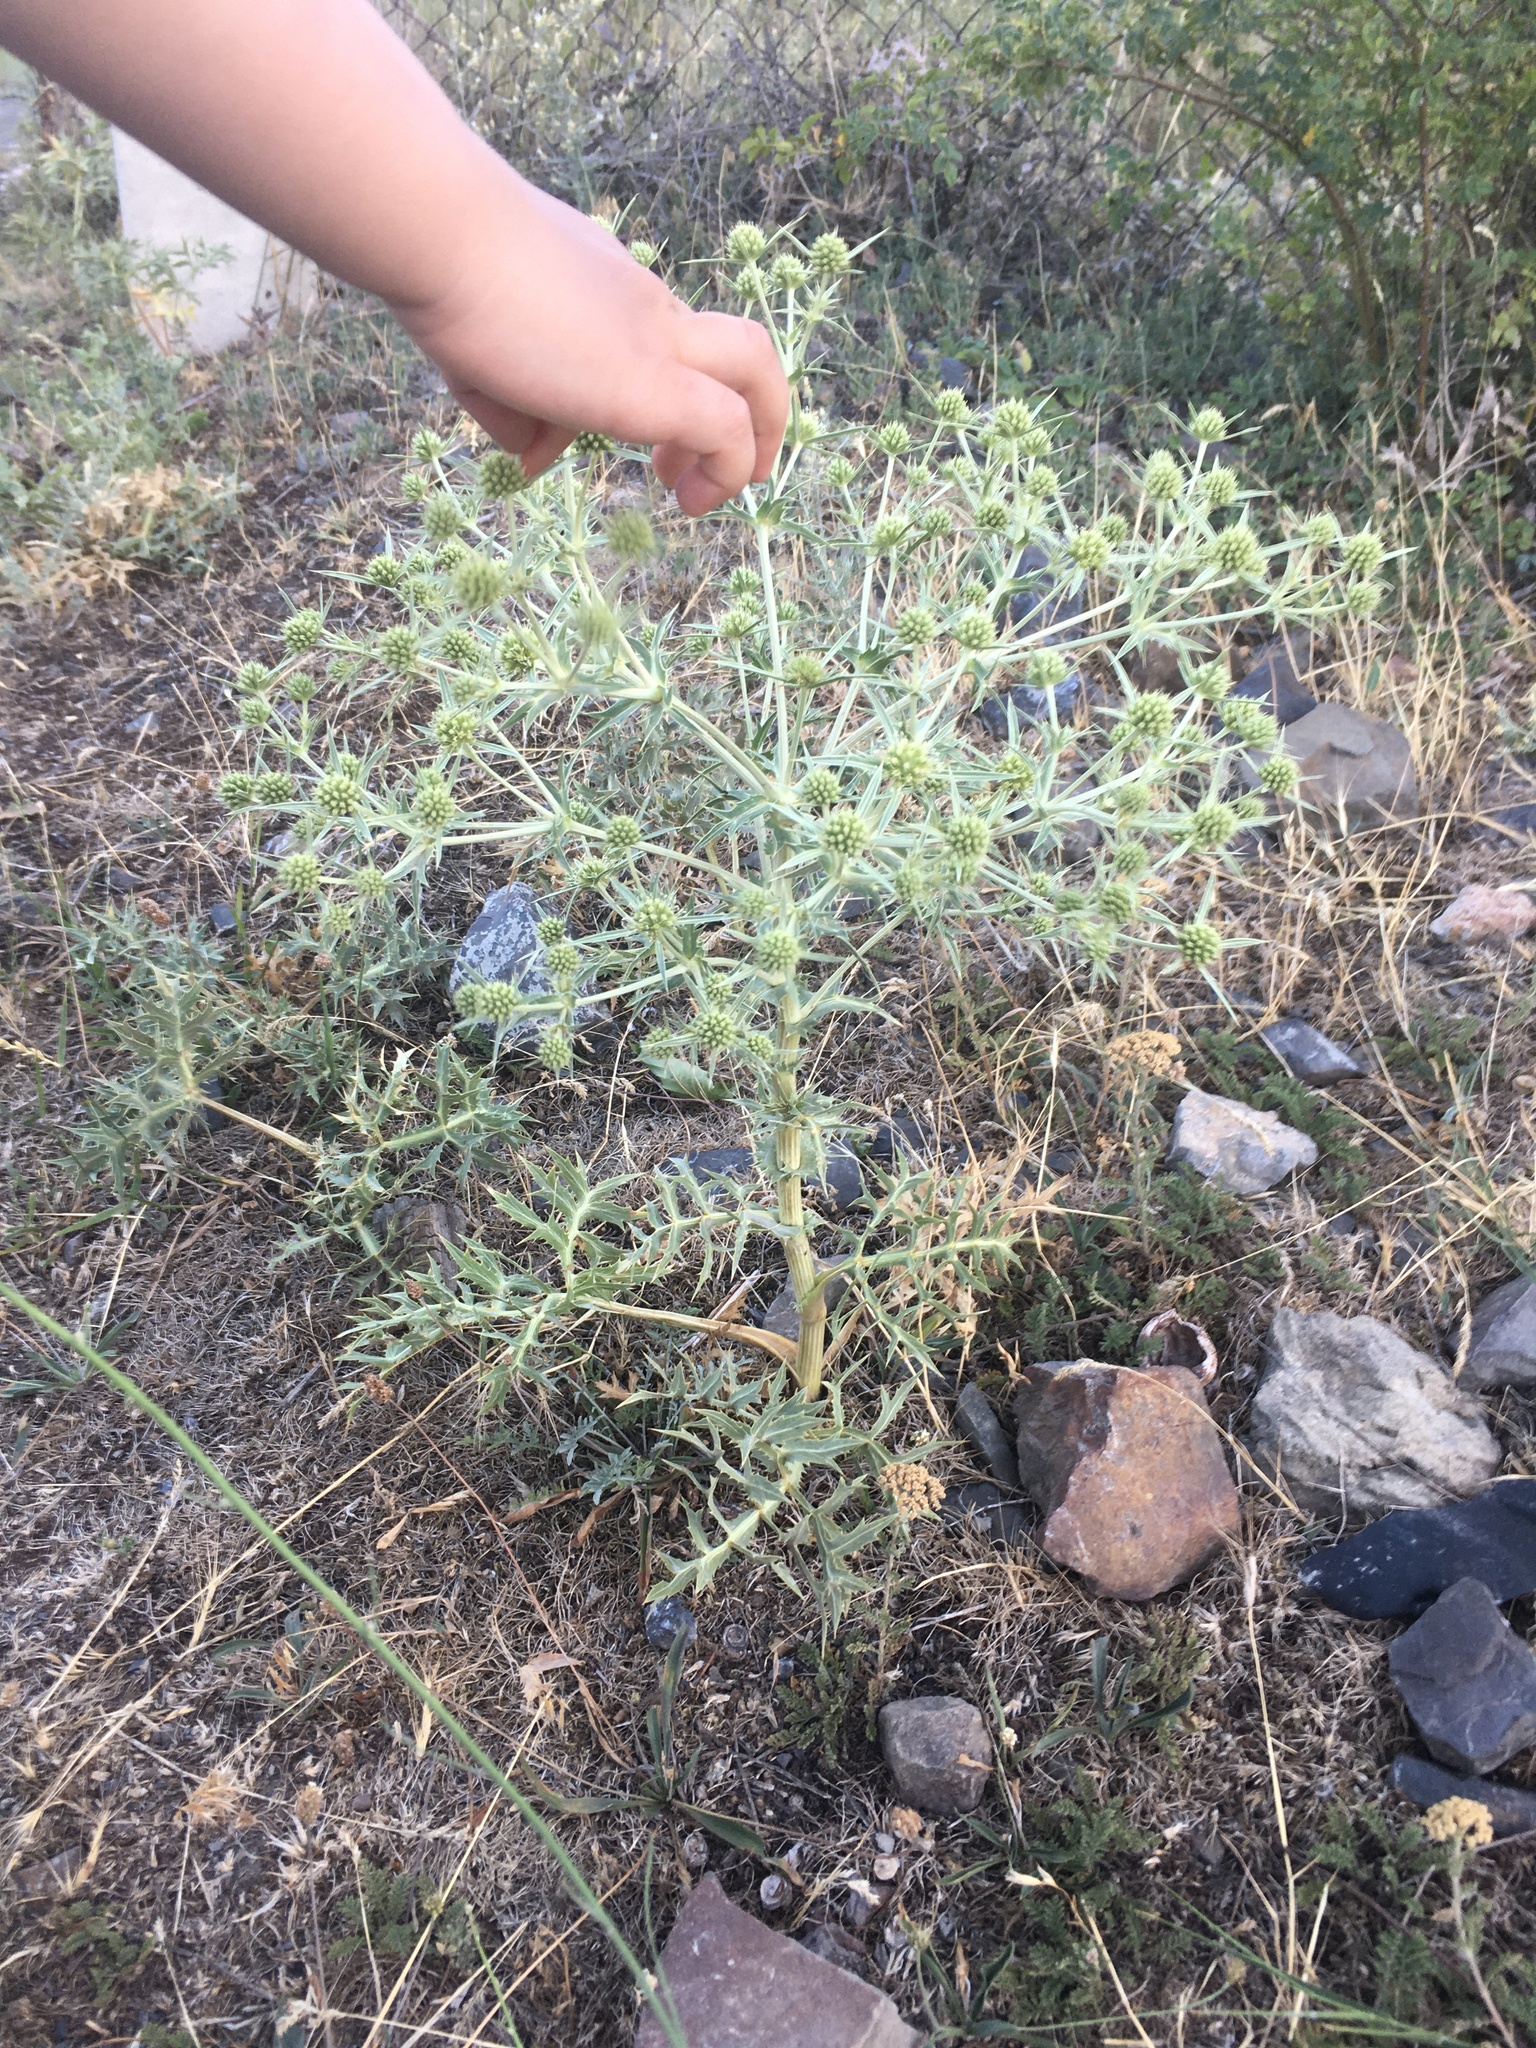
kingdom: Plantae
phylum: Tracheophyta
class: Magnoliopsida
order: Apiales
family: Apiaceae
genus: Eryngium
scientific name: Eryngium campestre
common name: Field eryngo
